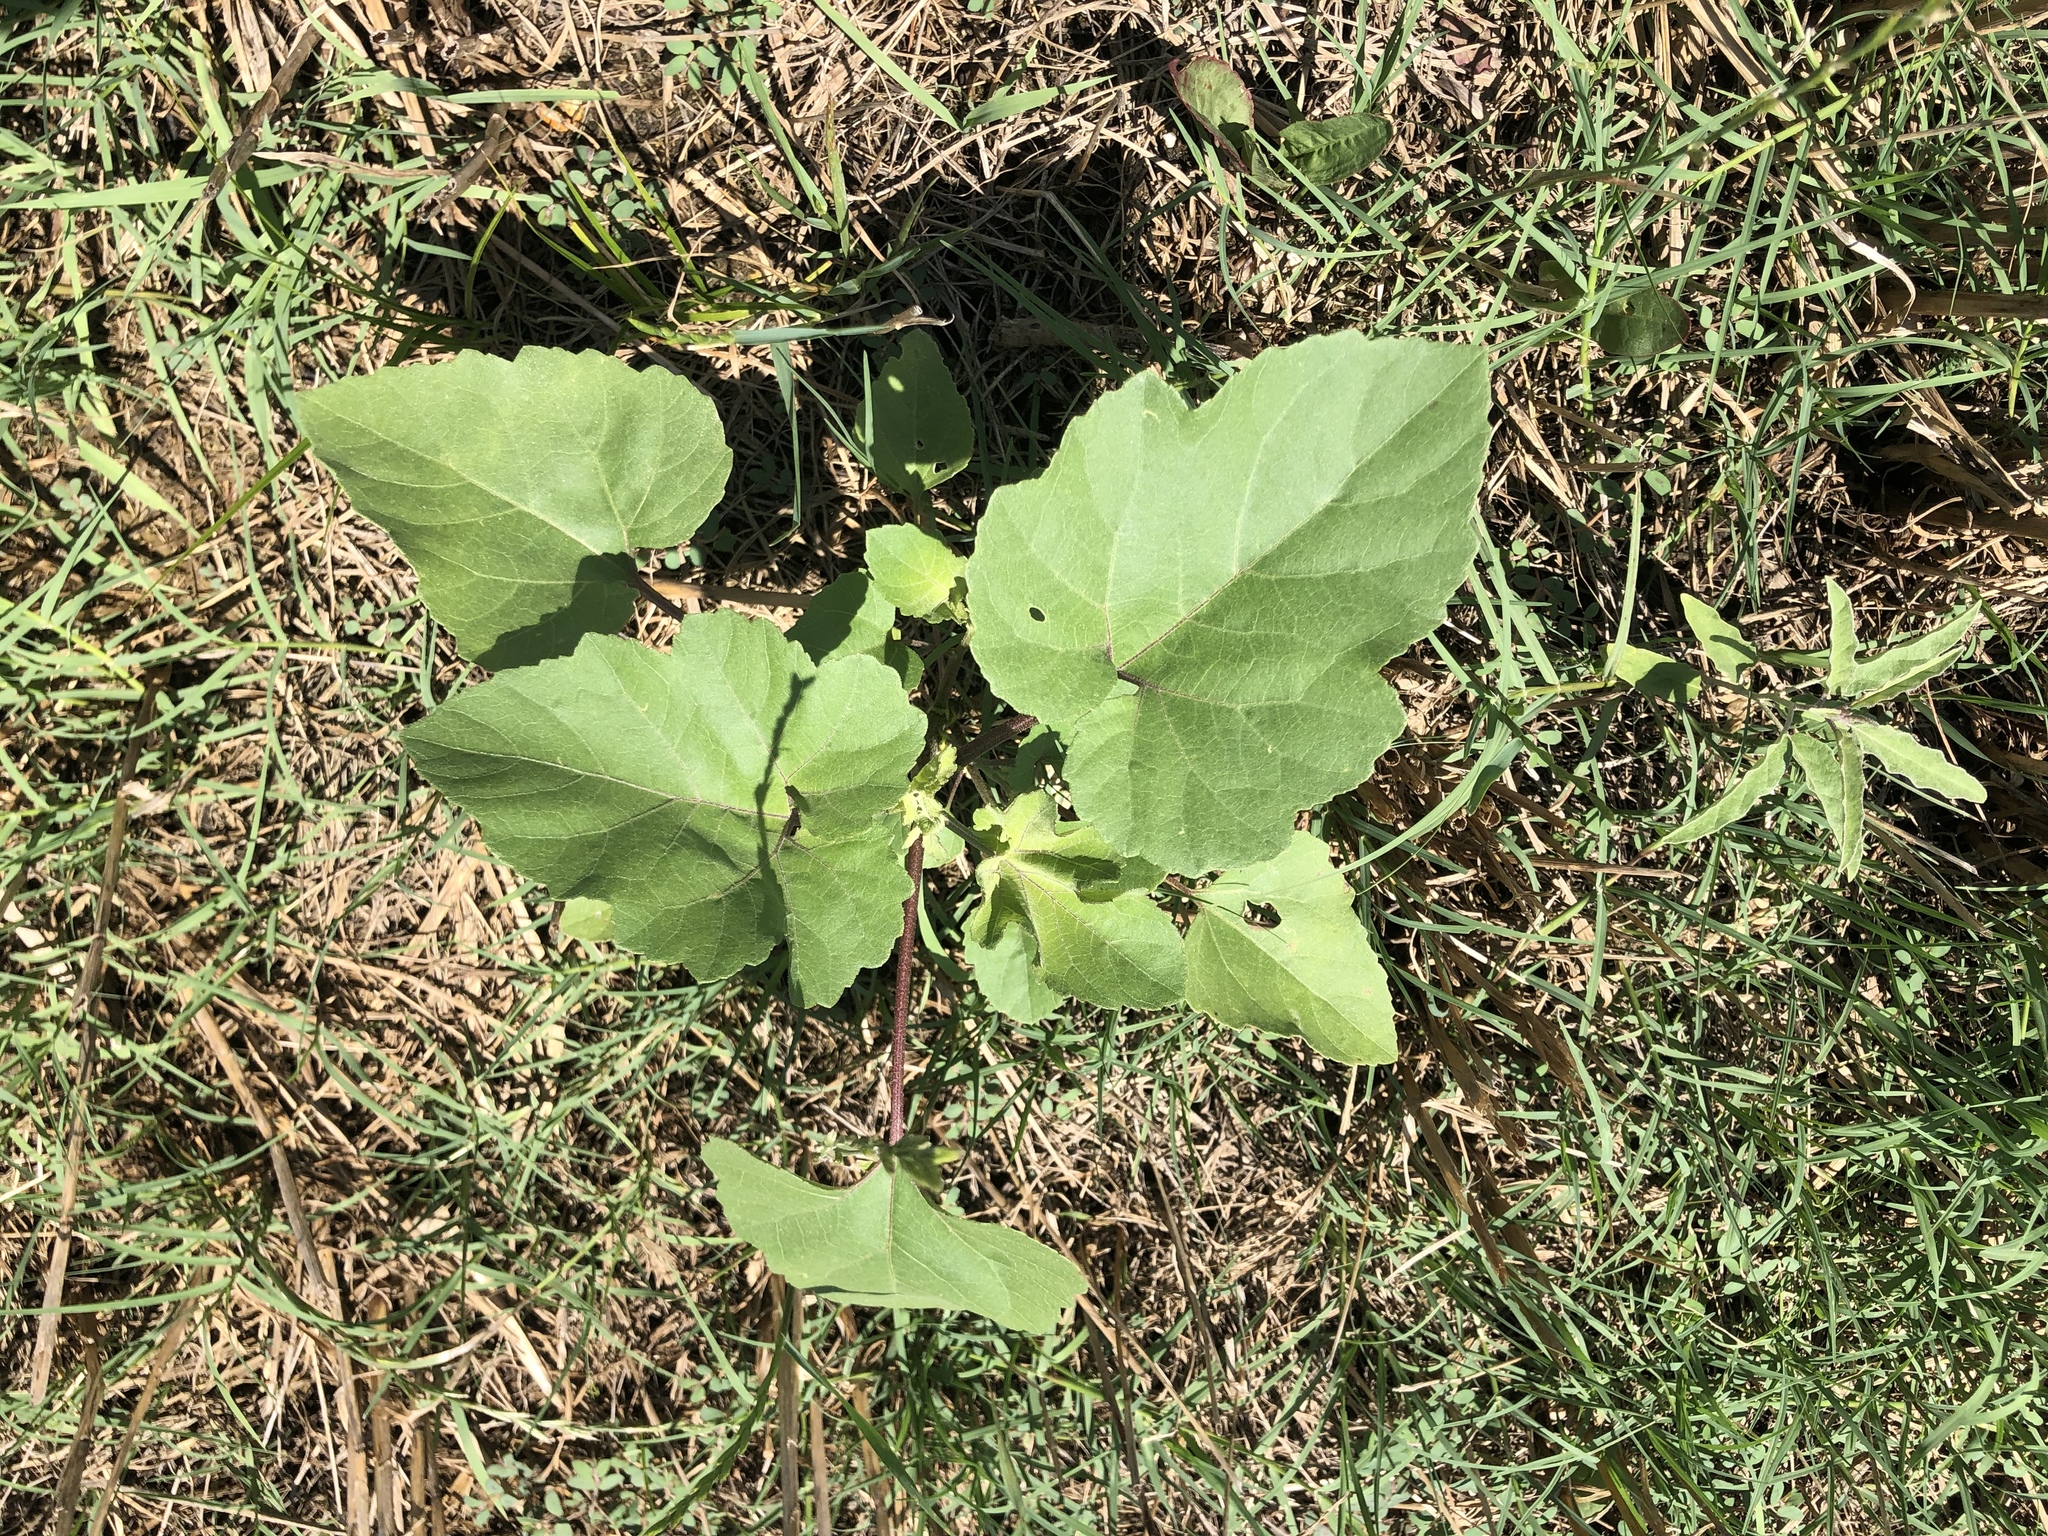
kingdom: Plantae
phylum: Tracheophyta
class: Magnoliopsida
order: Asterales
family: Asteraceae
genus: Xanthium
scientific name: Xanthium strumarium
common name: Rough cocklebur
